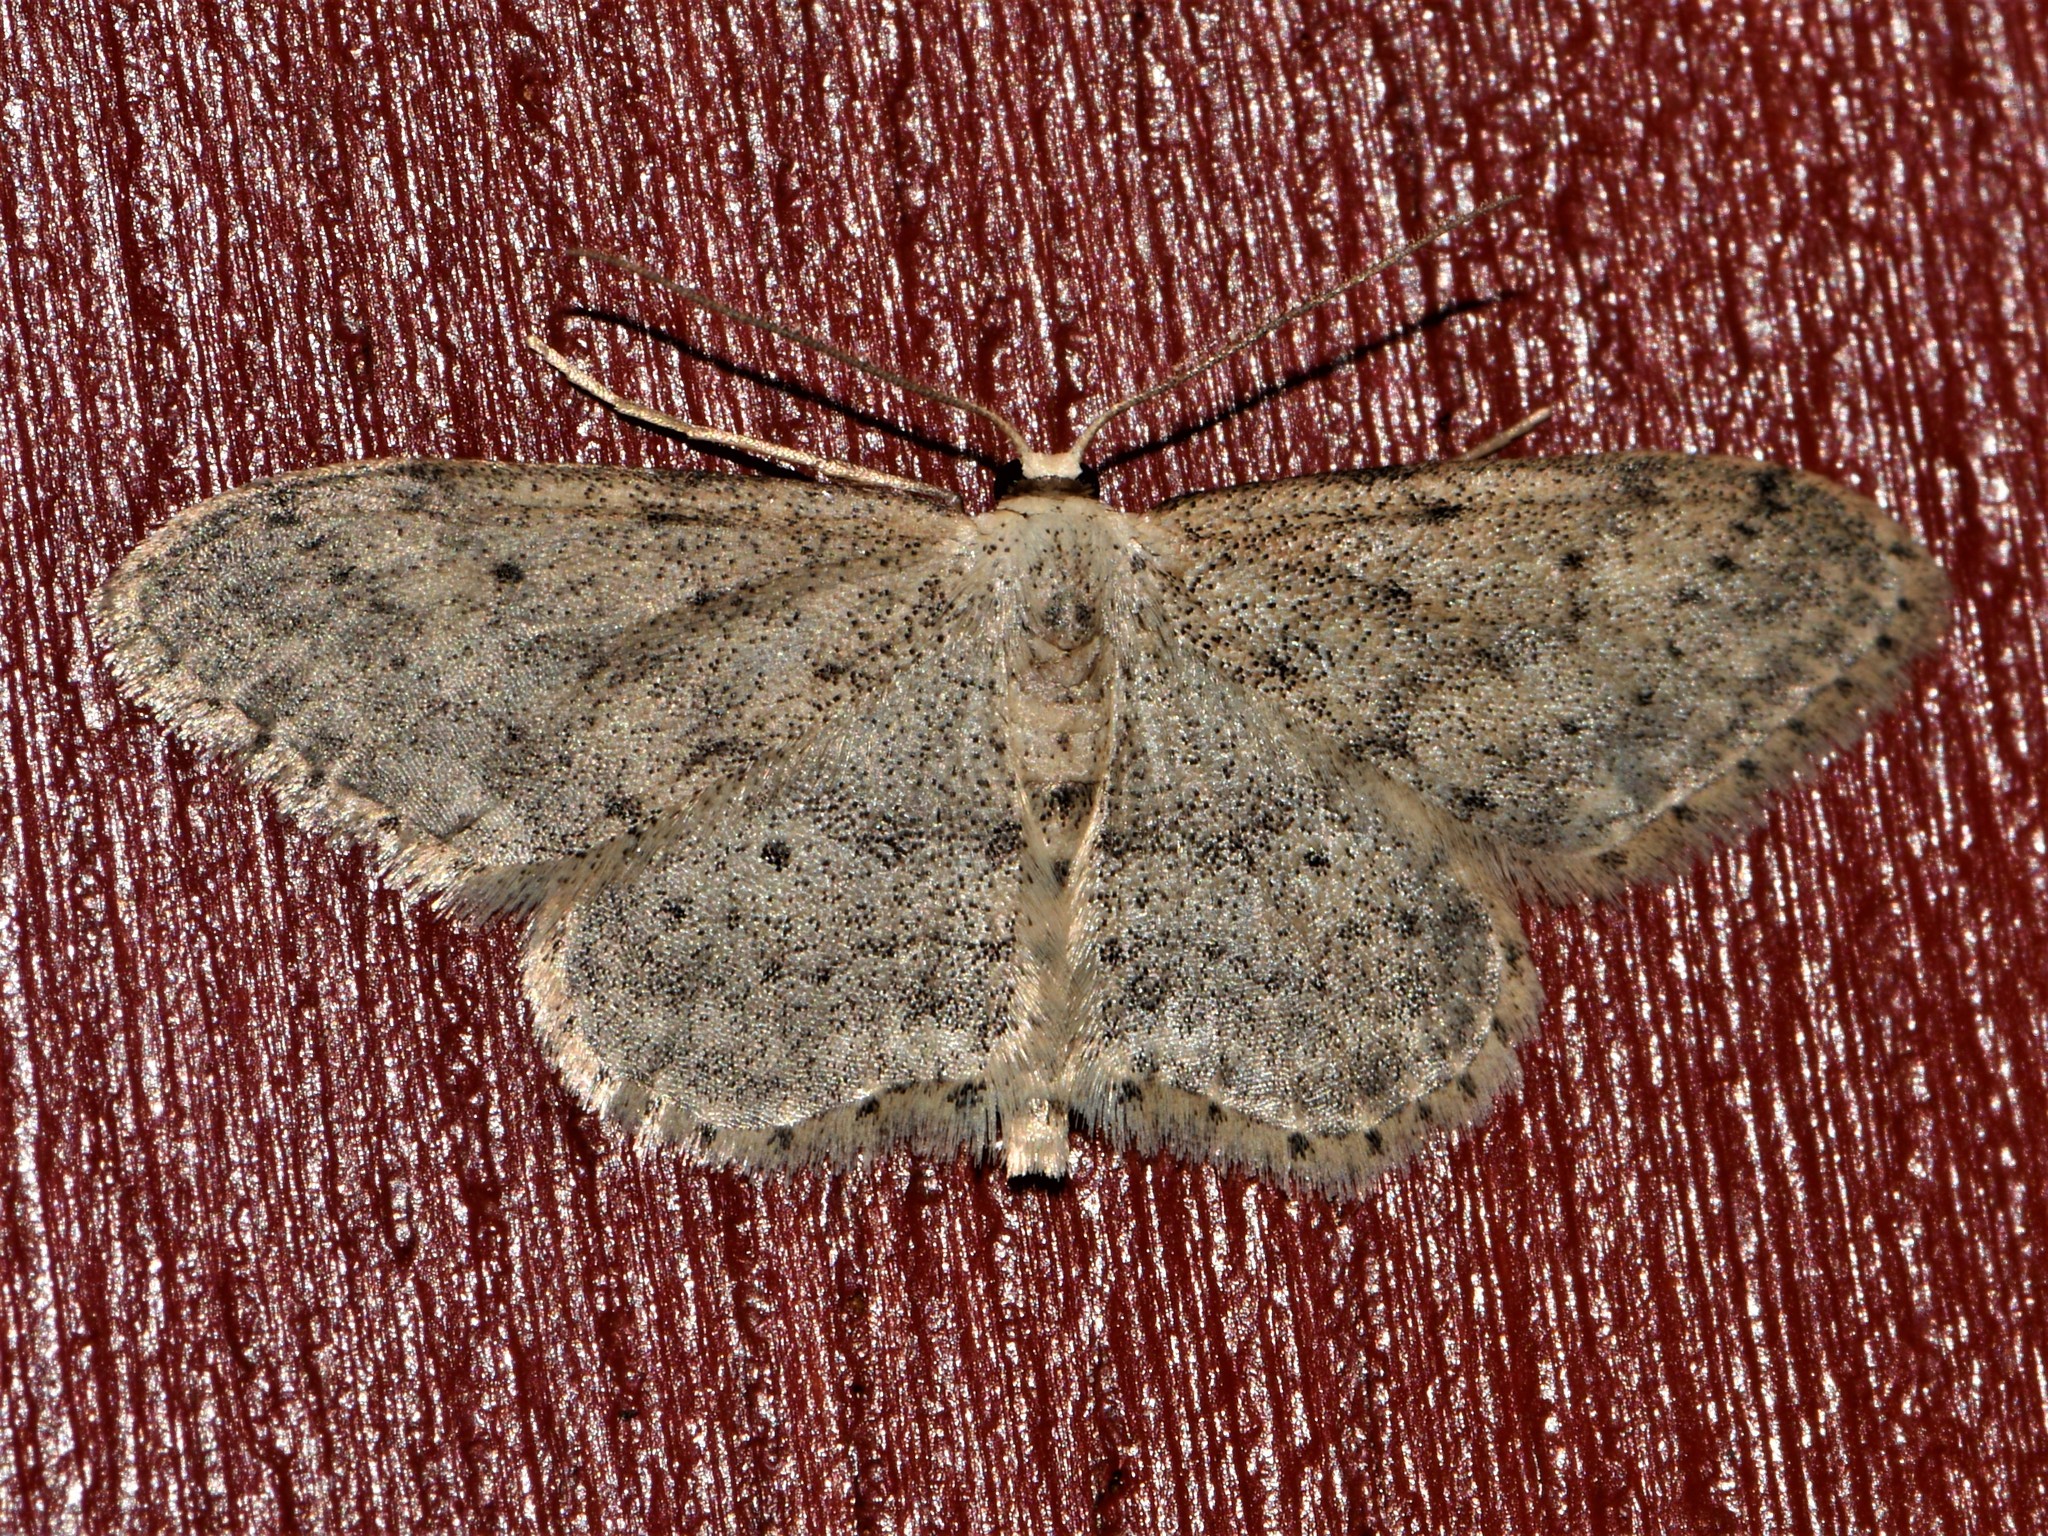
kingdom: Animalia
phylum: Arthropoda
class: Insecta
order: Lepidoptera
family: Geometridae
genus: Idaea
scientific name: Idaea seriata
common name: Small dusty wave
